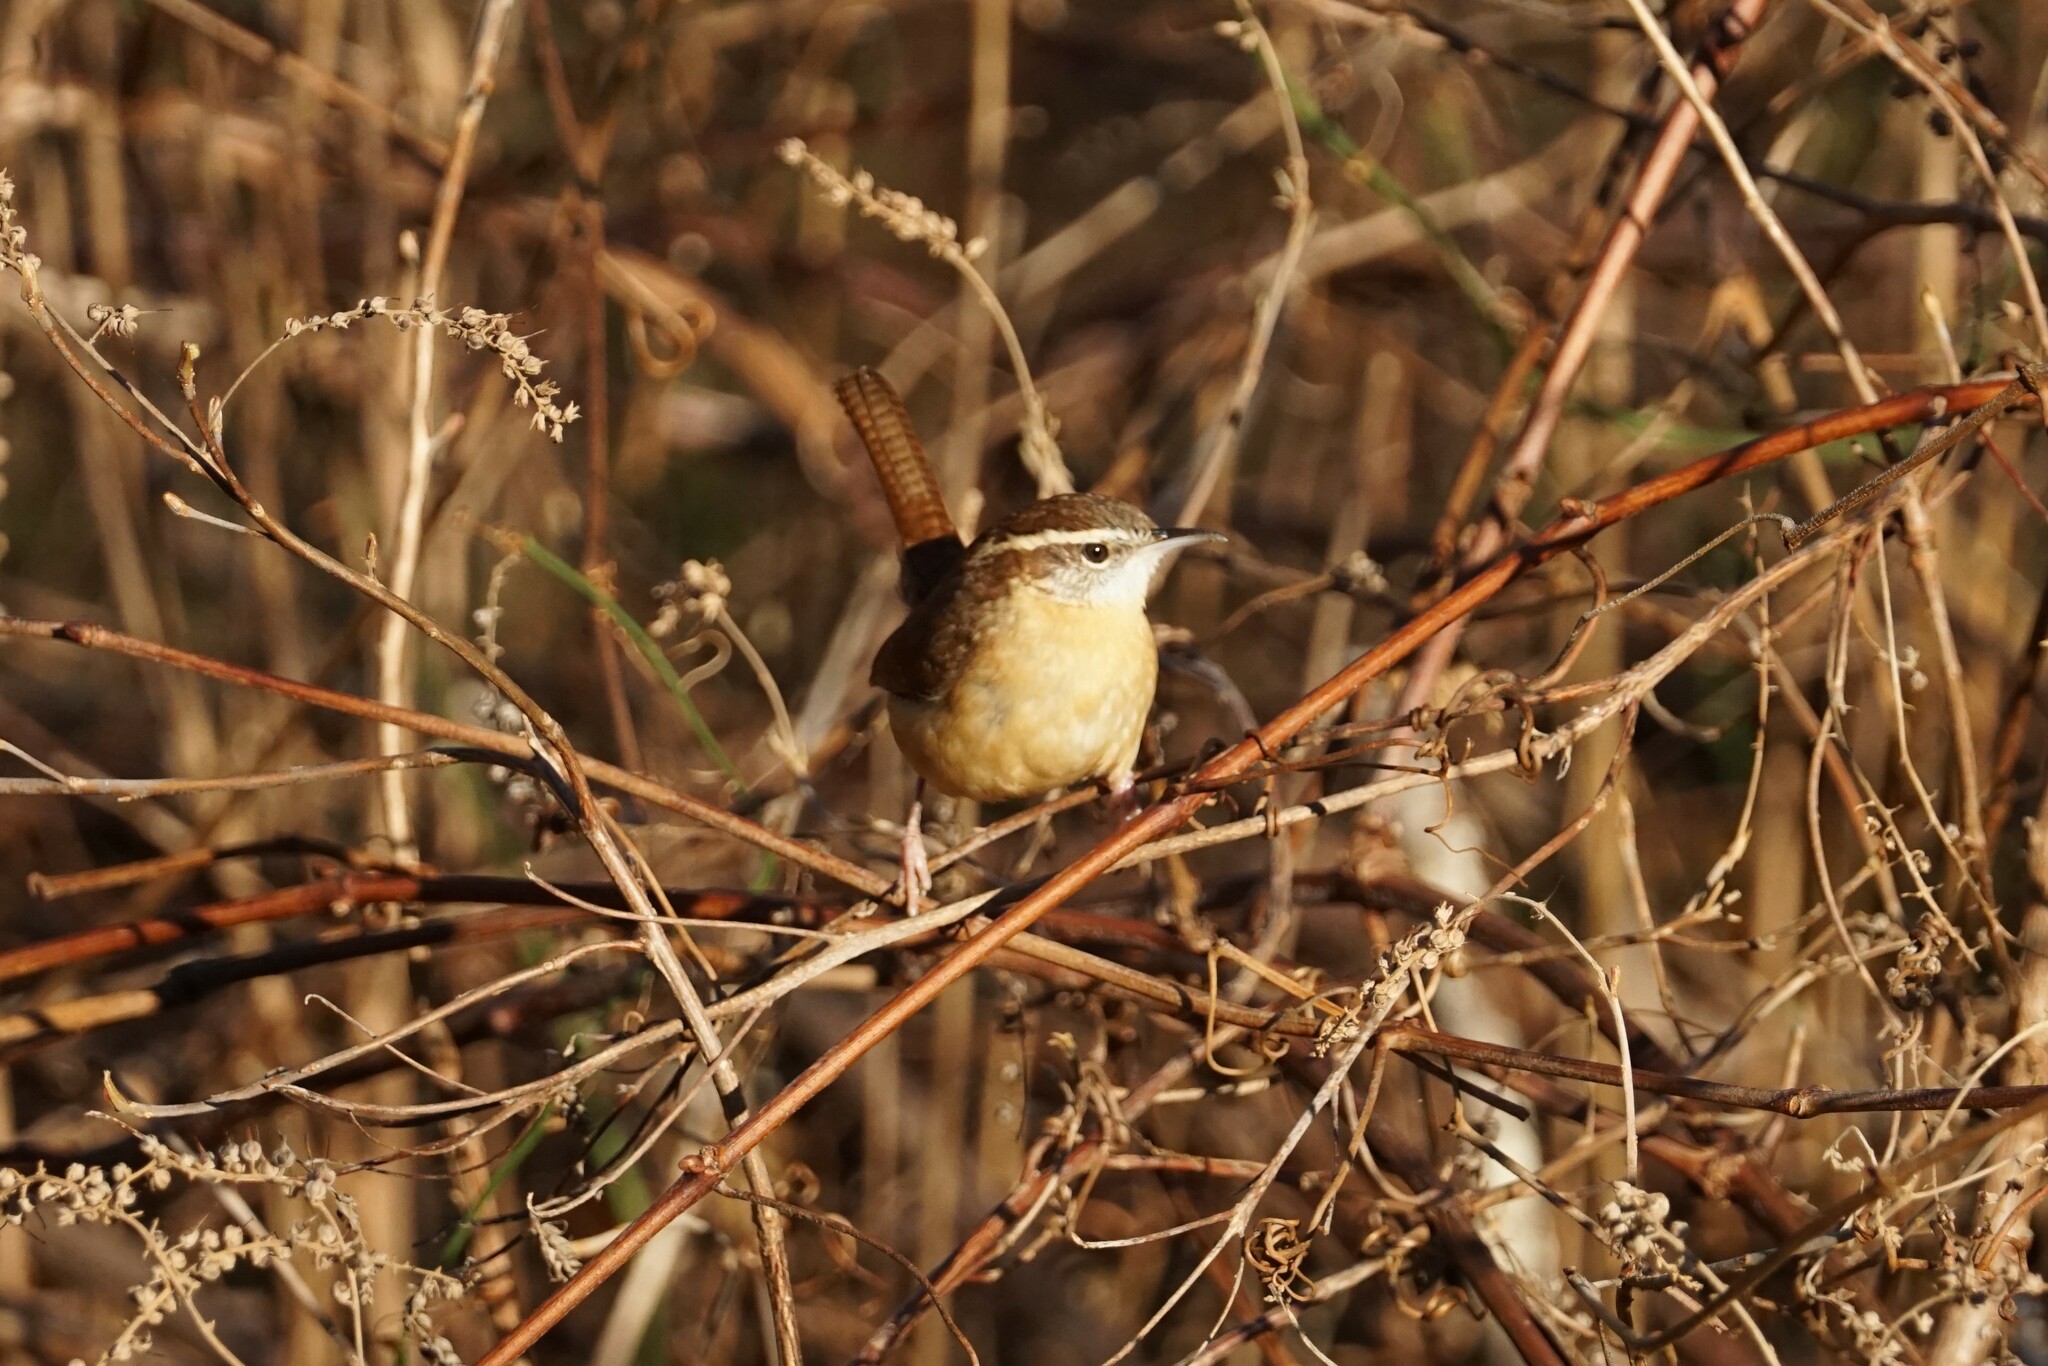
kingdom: Animalia
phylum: Chordata
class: Aves
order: Passeriformes
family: Troglodytidae
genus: Thryothorus
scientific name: Thryothorus ludovicianus
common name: Carolina wren
